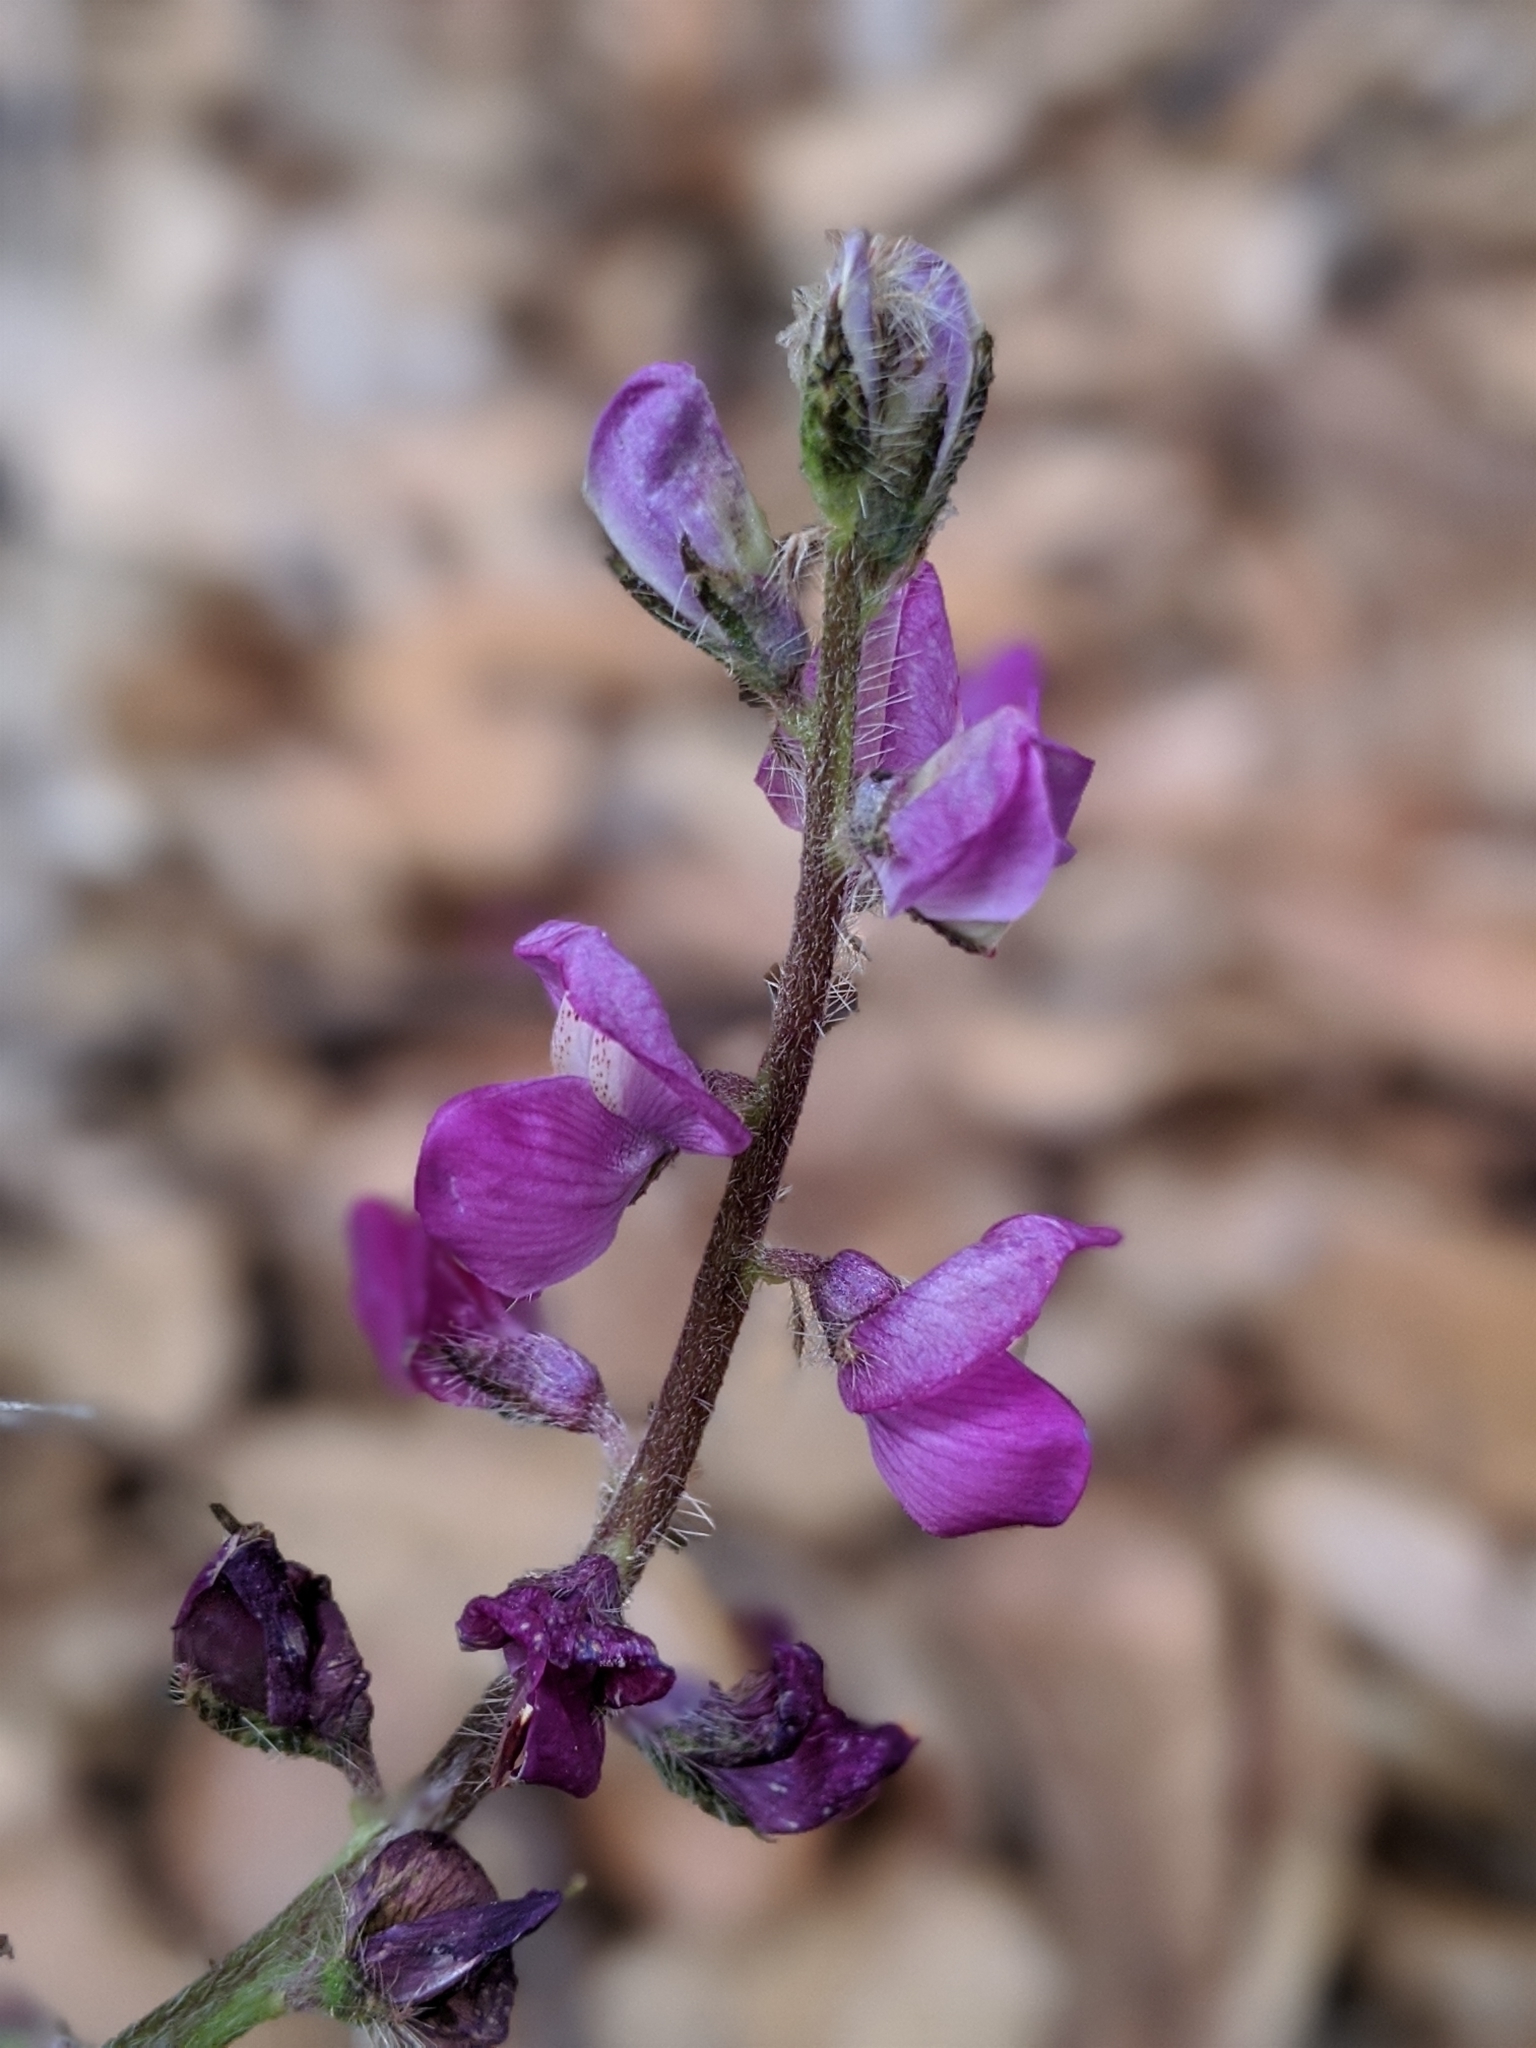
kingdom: Plantae
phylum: Tracheophyta
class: Magnoliopsida
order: Fabales
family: Fabaceae
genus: Lupinus
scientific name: Lupinus hirsutissimus
